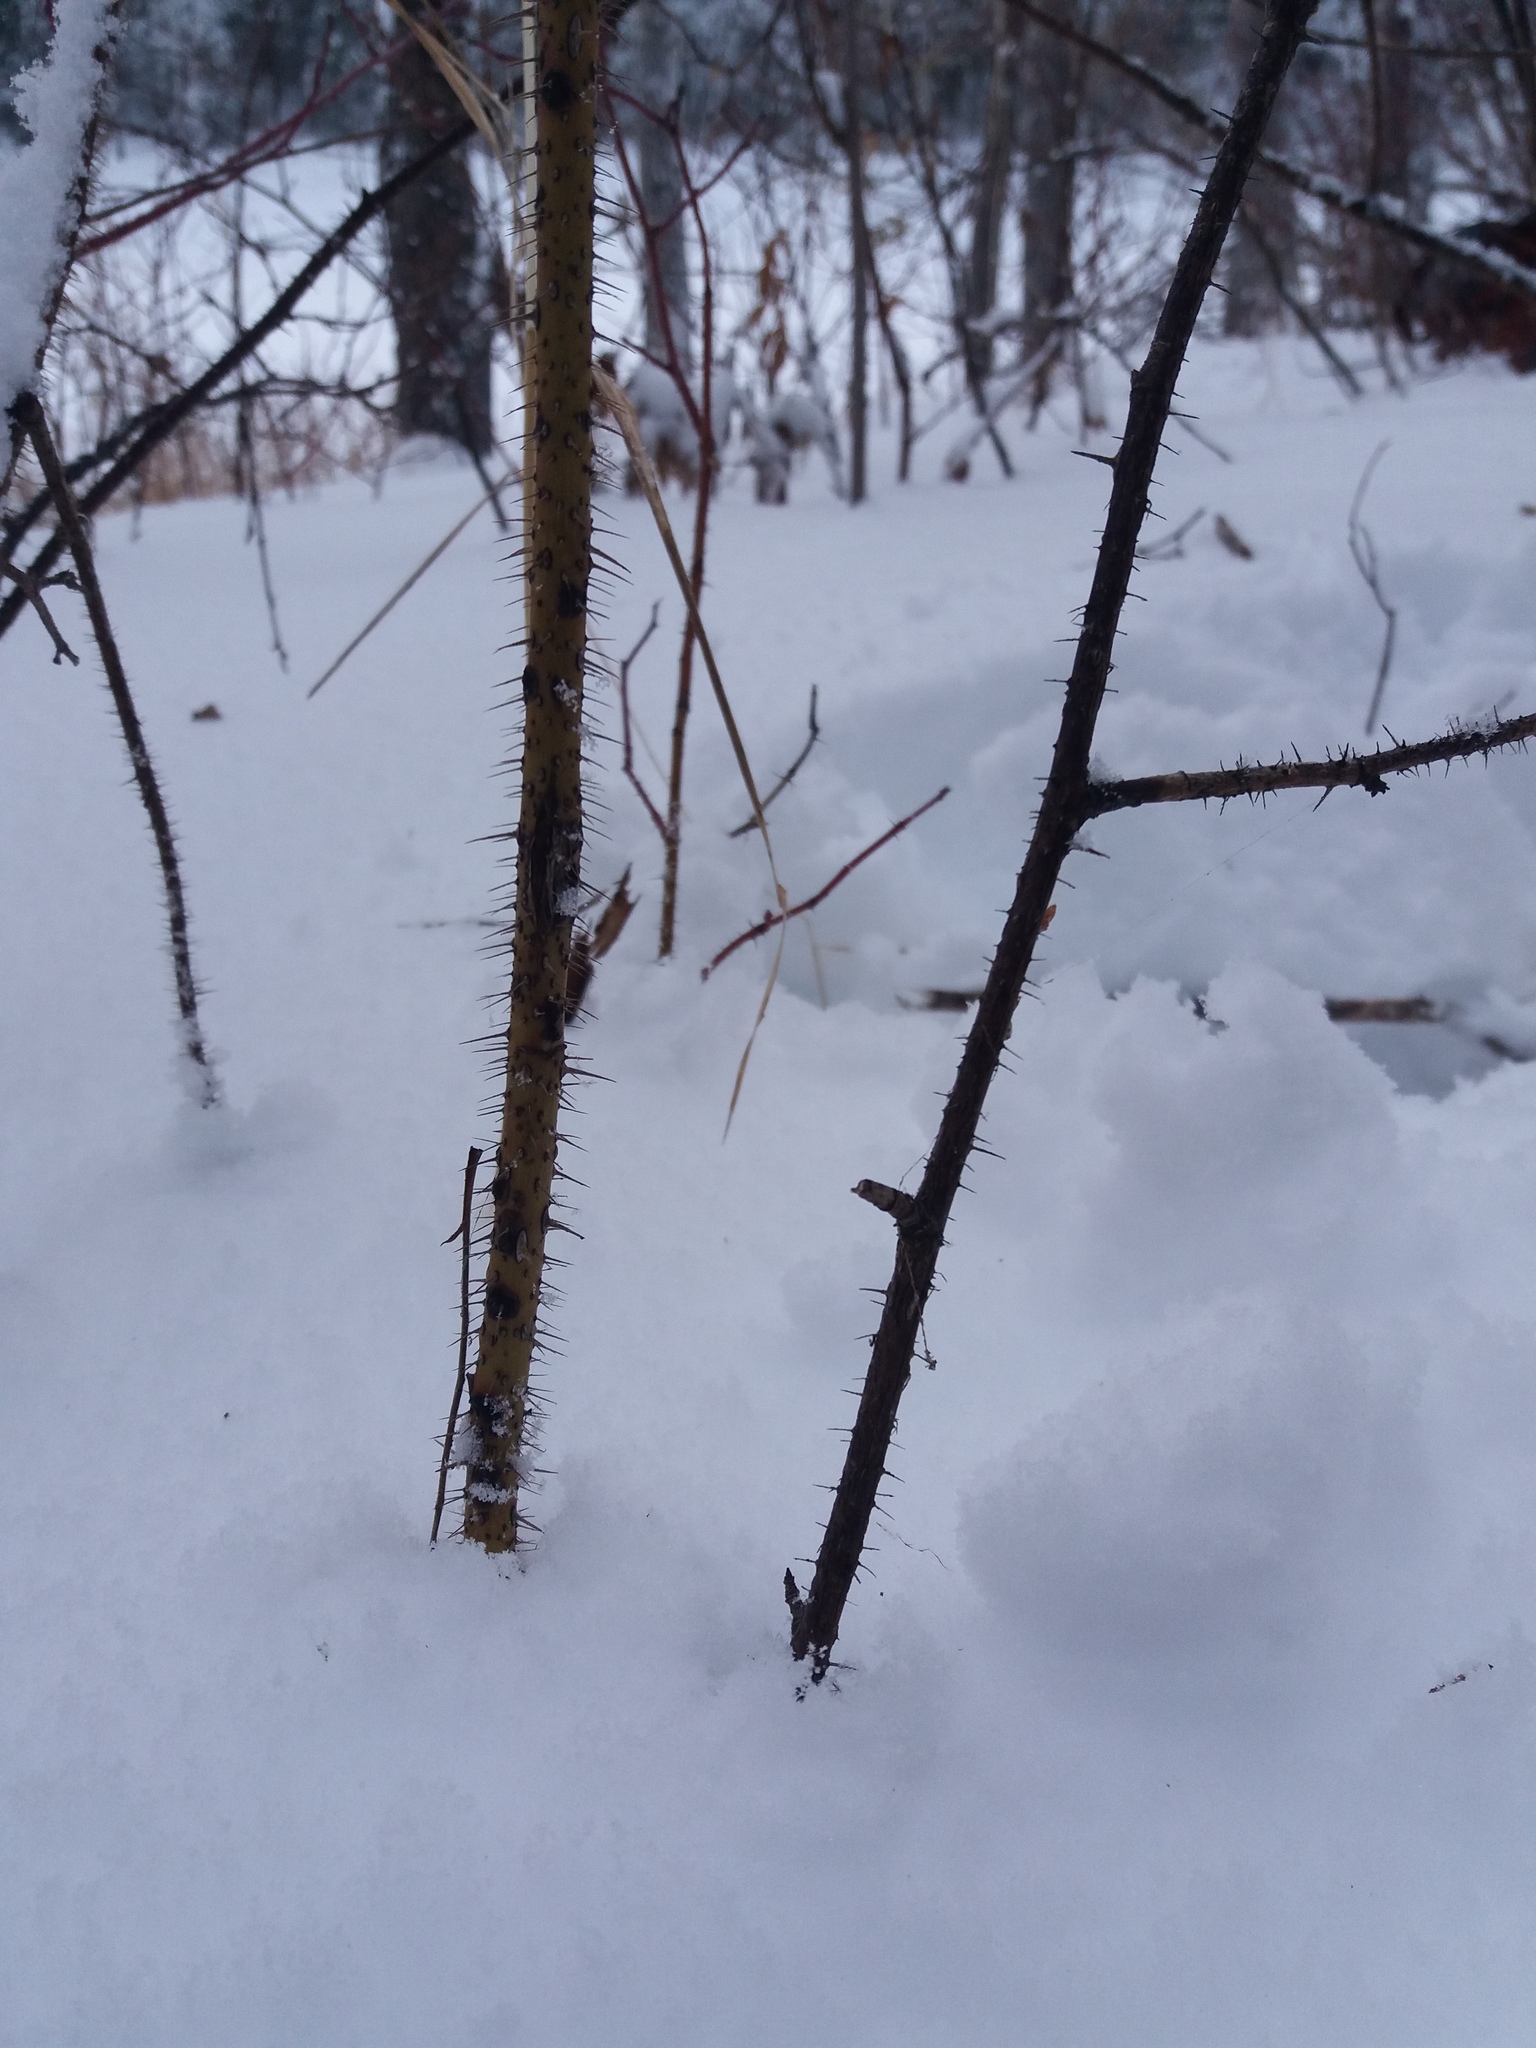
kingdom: Plantae
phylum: Tracheophyta
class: Magnoliopsida
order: Rosales
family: Rosaceae
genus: Rosa
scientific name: Rosa acicularis
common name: Prickly rose
